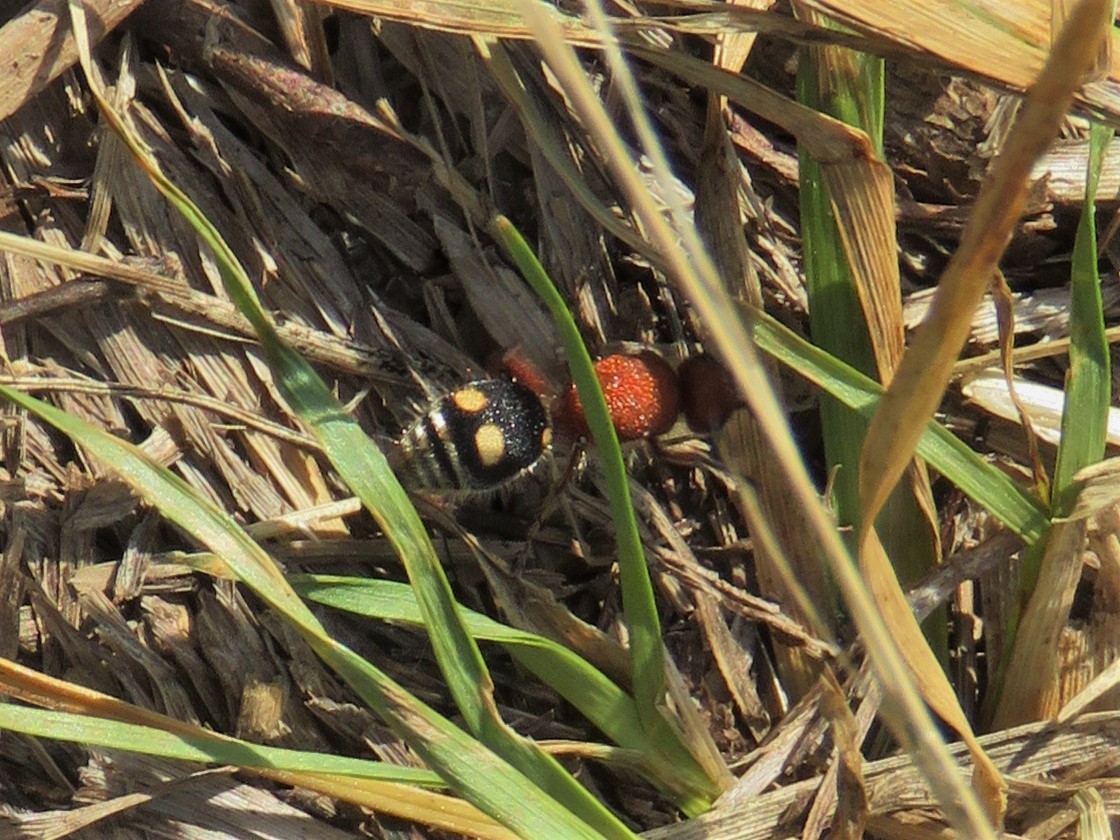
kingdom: Animalia
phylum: Arthropoda
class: Insecta
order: Hymenoptera
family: Mutillidae
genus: Dasymutilla
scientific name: Dasymutilla
